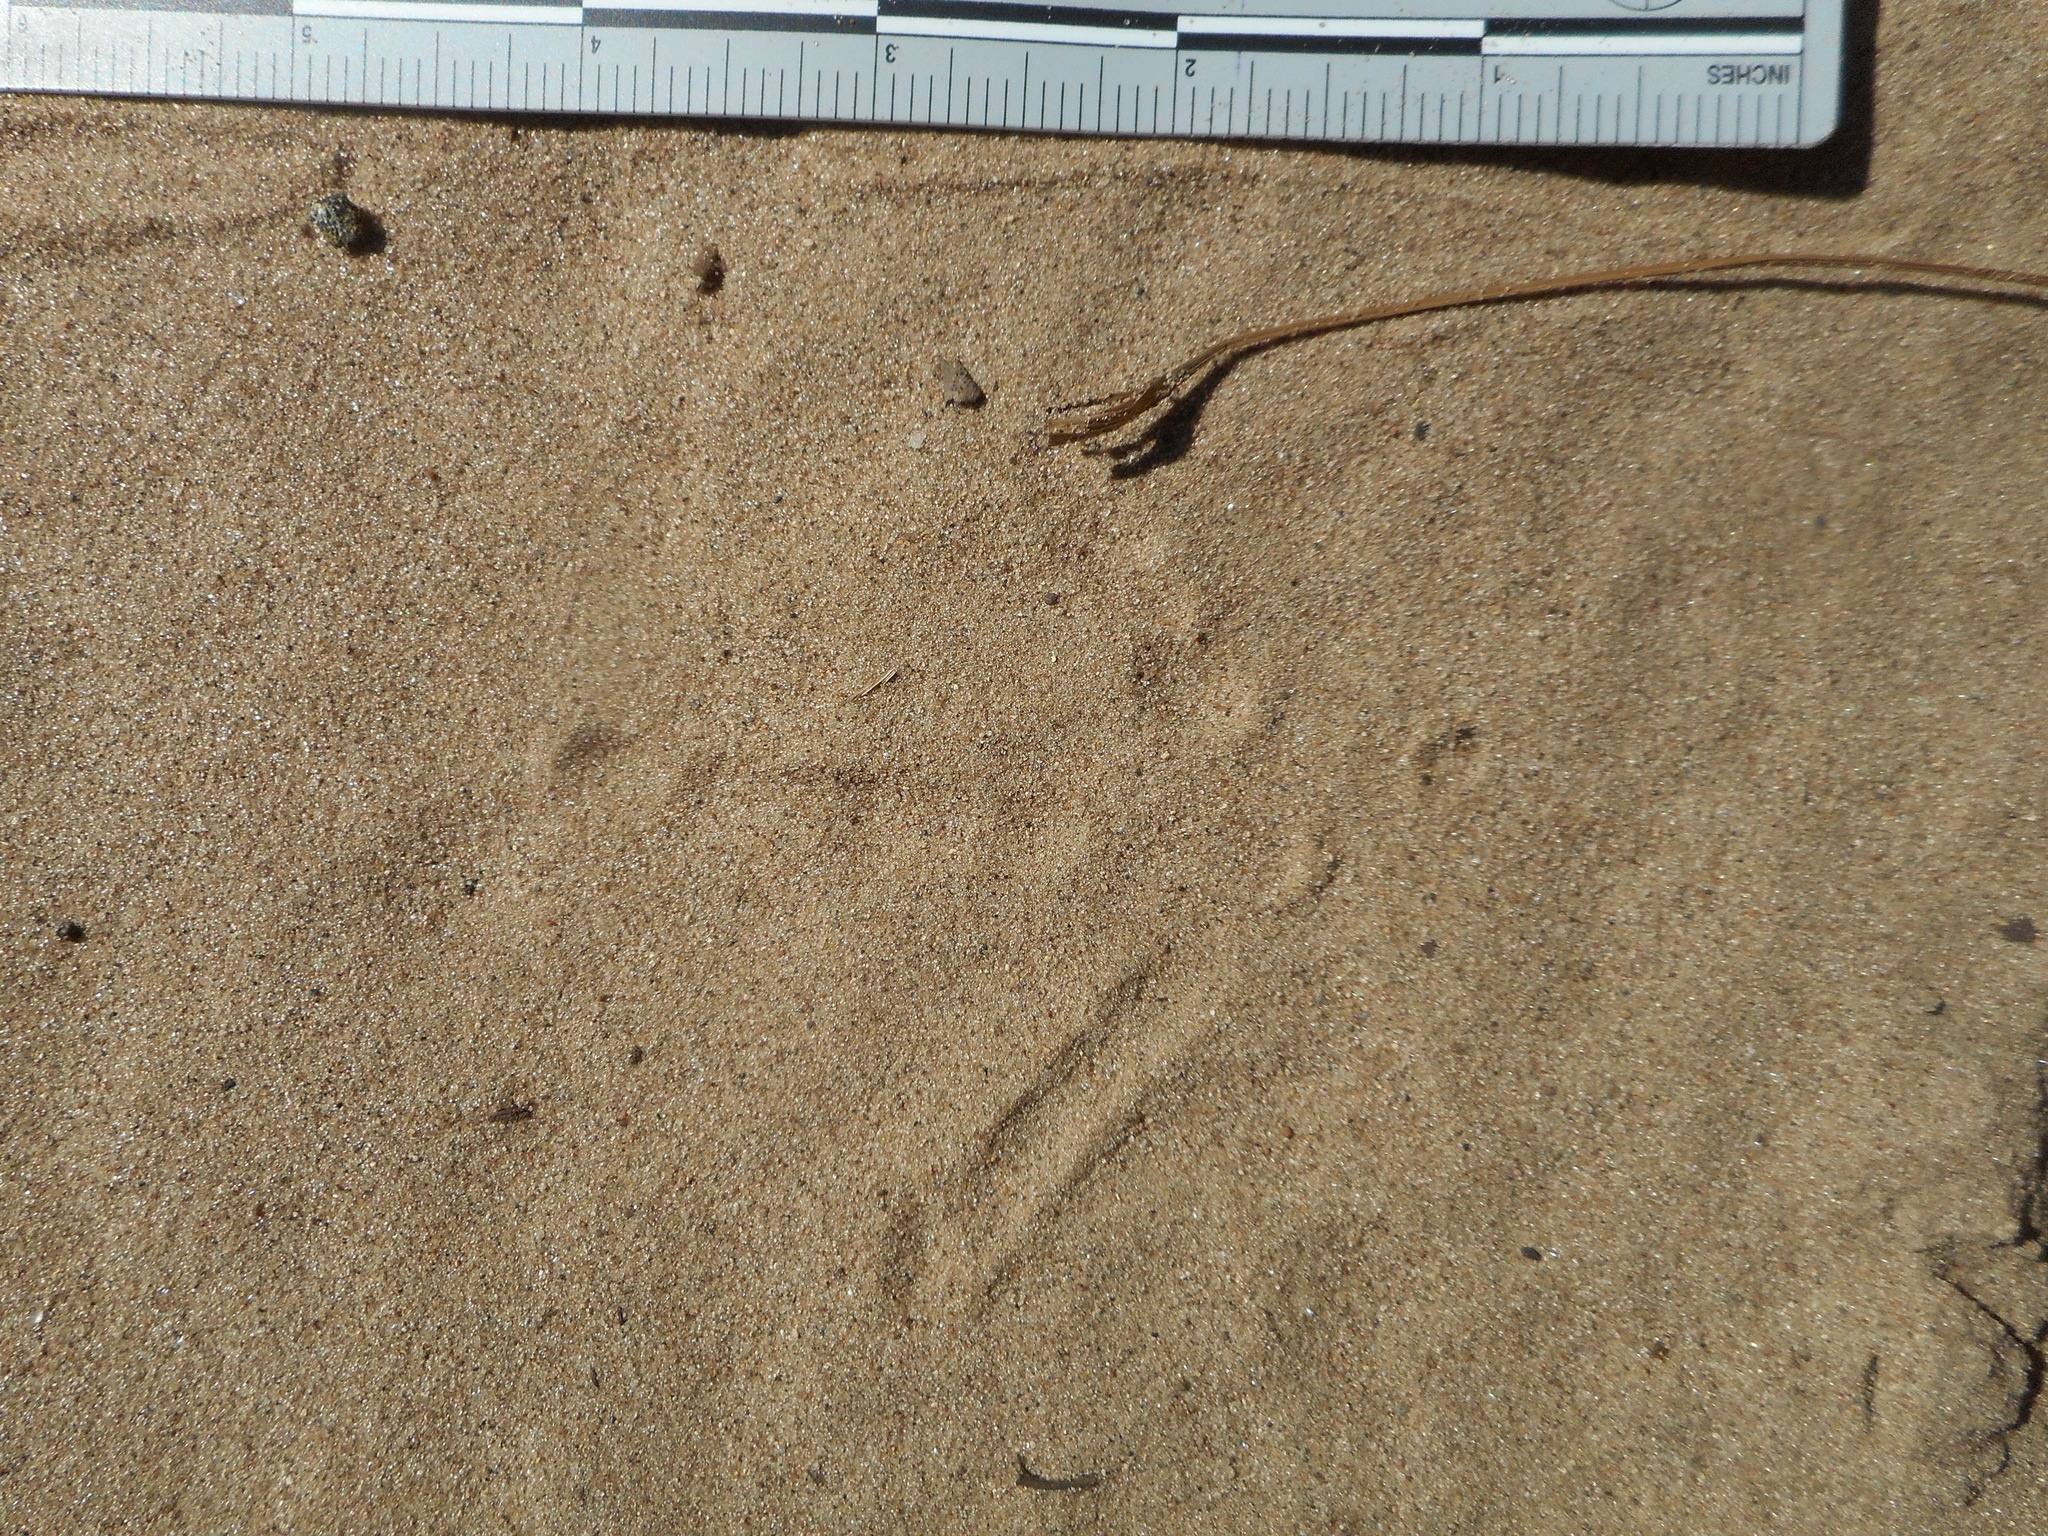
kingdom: Animalia
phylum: Chordata
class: Aves
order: Galliformes
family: Phasianidae
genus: Meleagris
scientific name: Meleagris gallopavo
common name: Wild turkey
